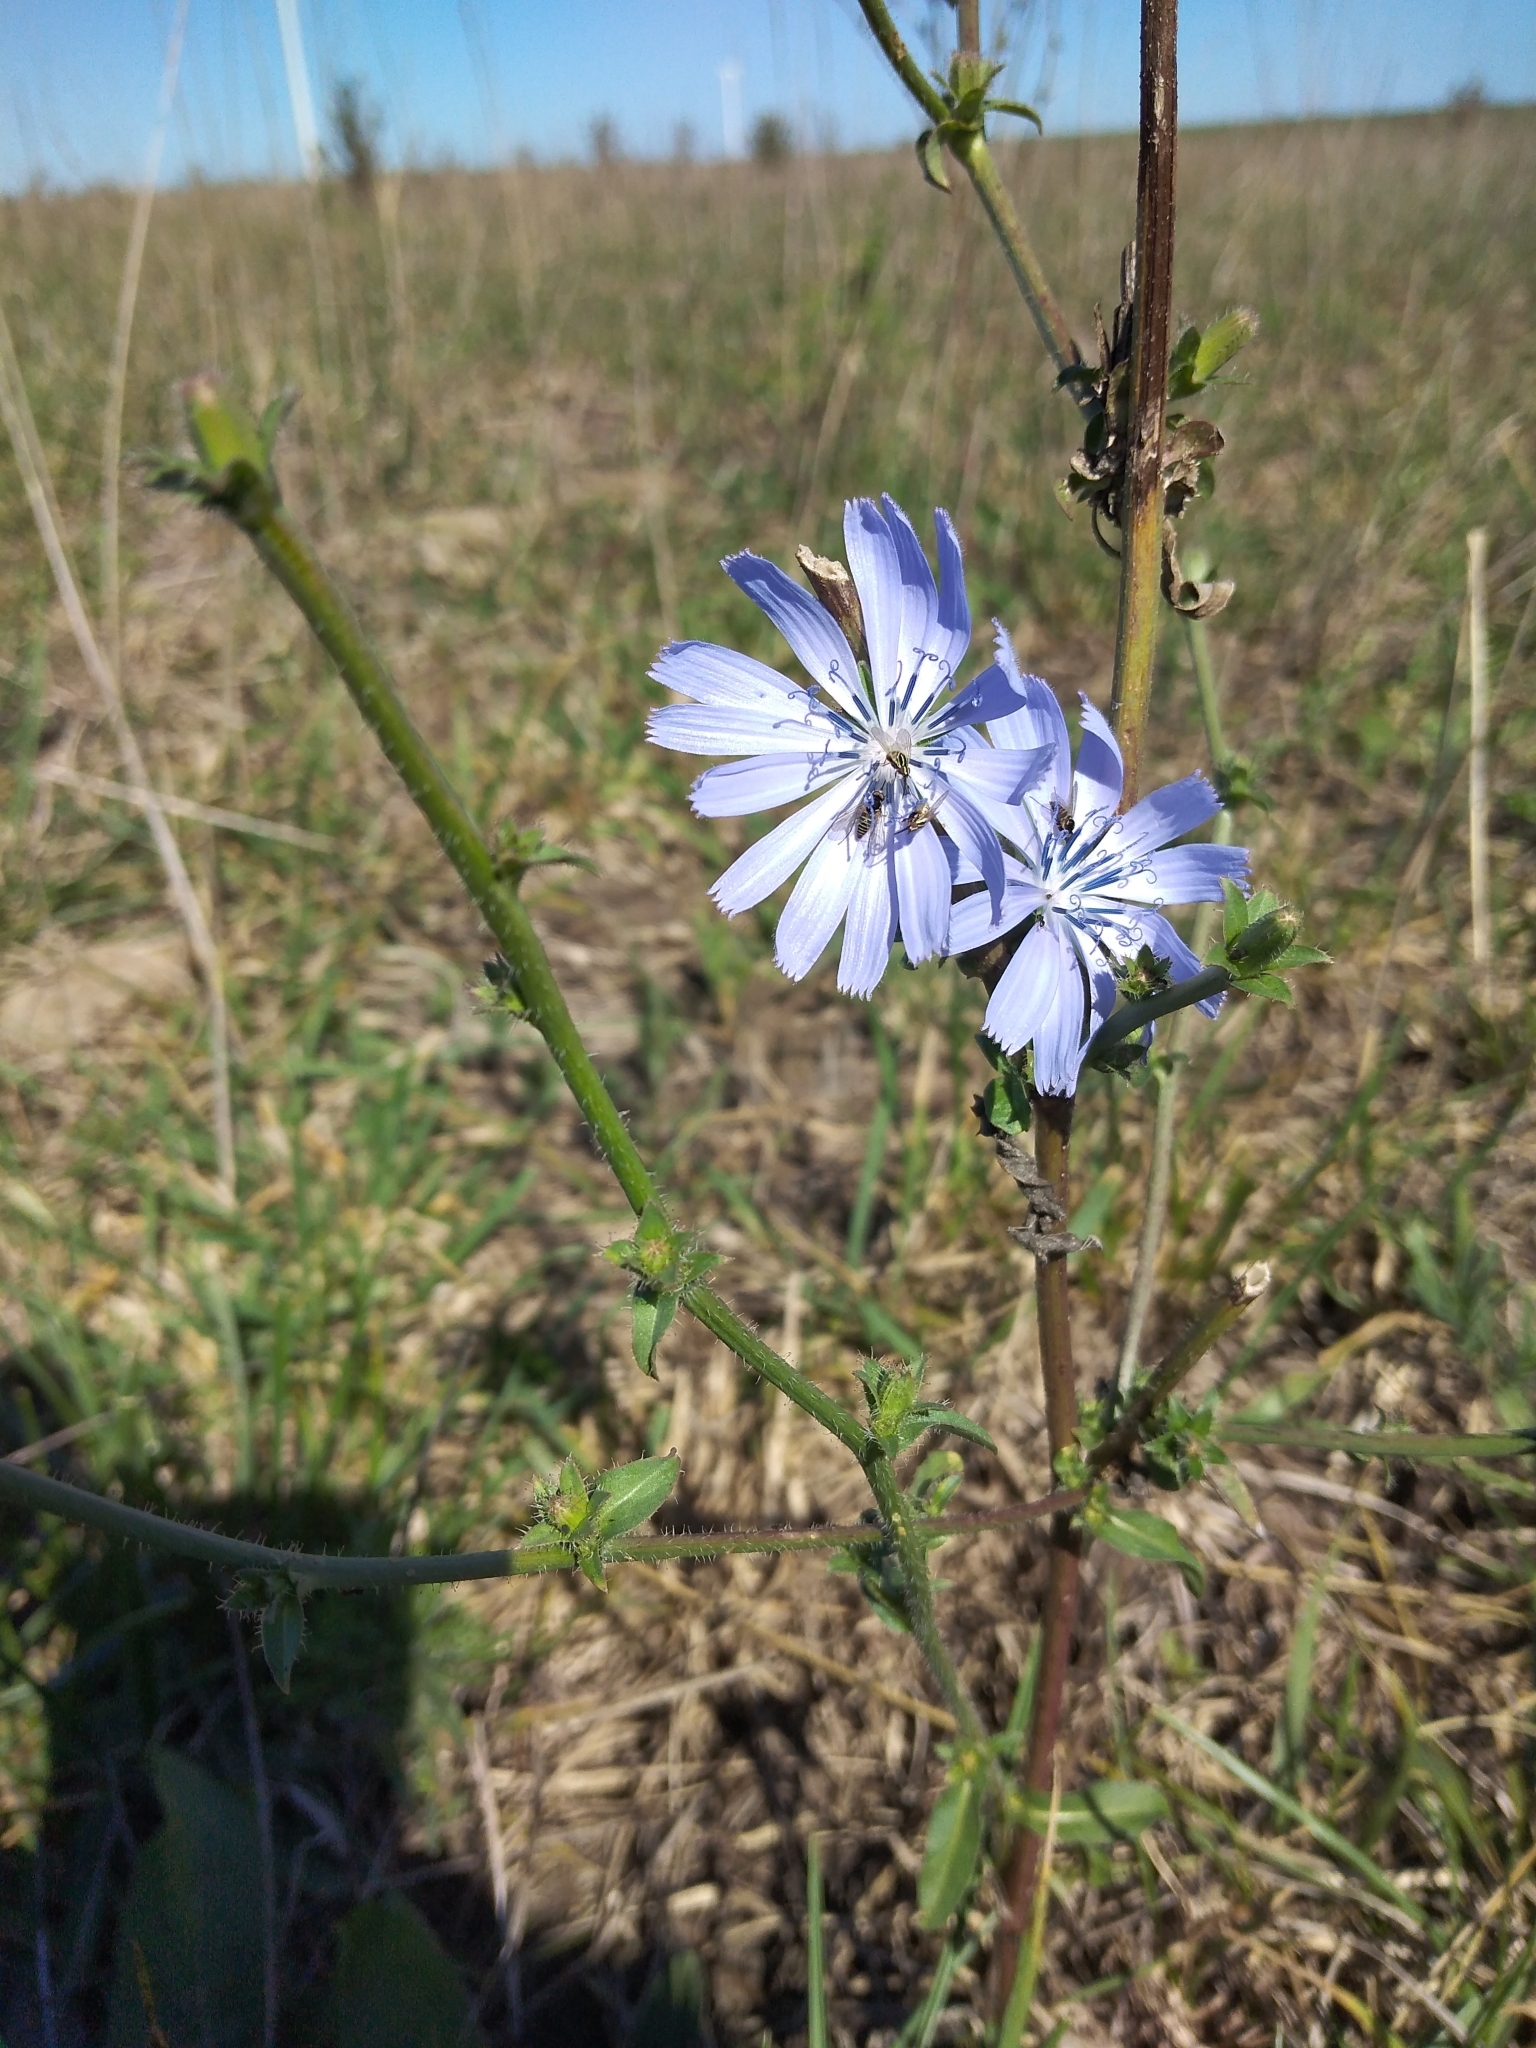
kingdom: Plantae
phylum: Tracheophyta
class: Magnoliopsida
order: Asterales
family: Asteraceae
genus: Cichorium
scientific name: Cichorium intybus
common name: Chicory
